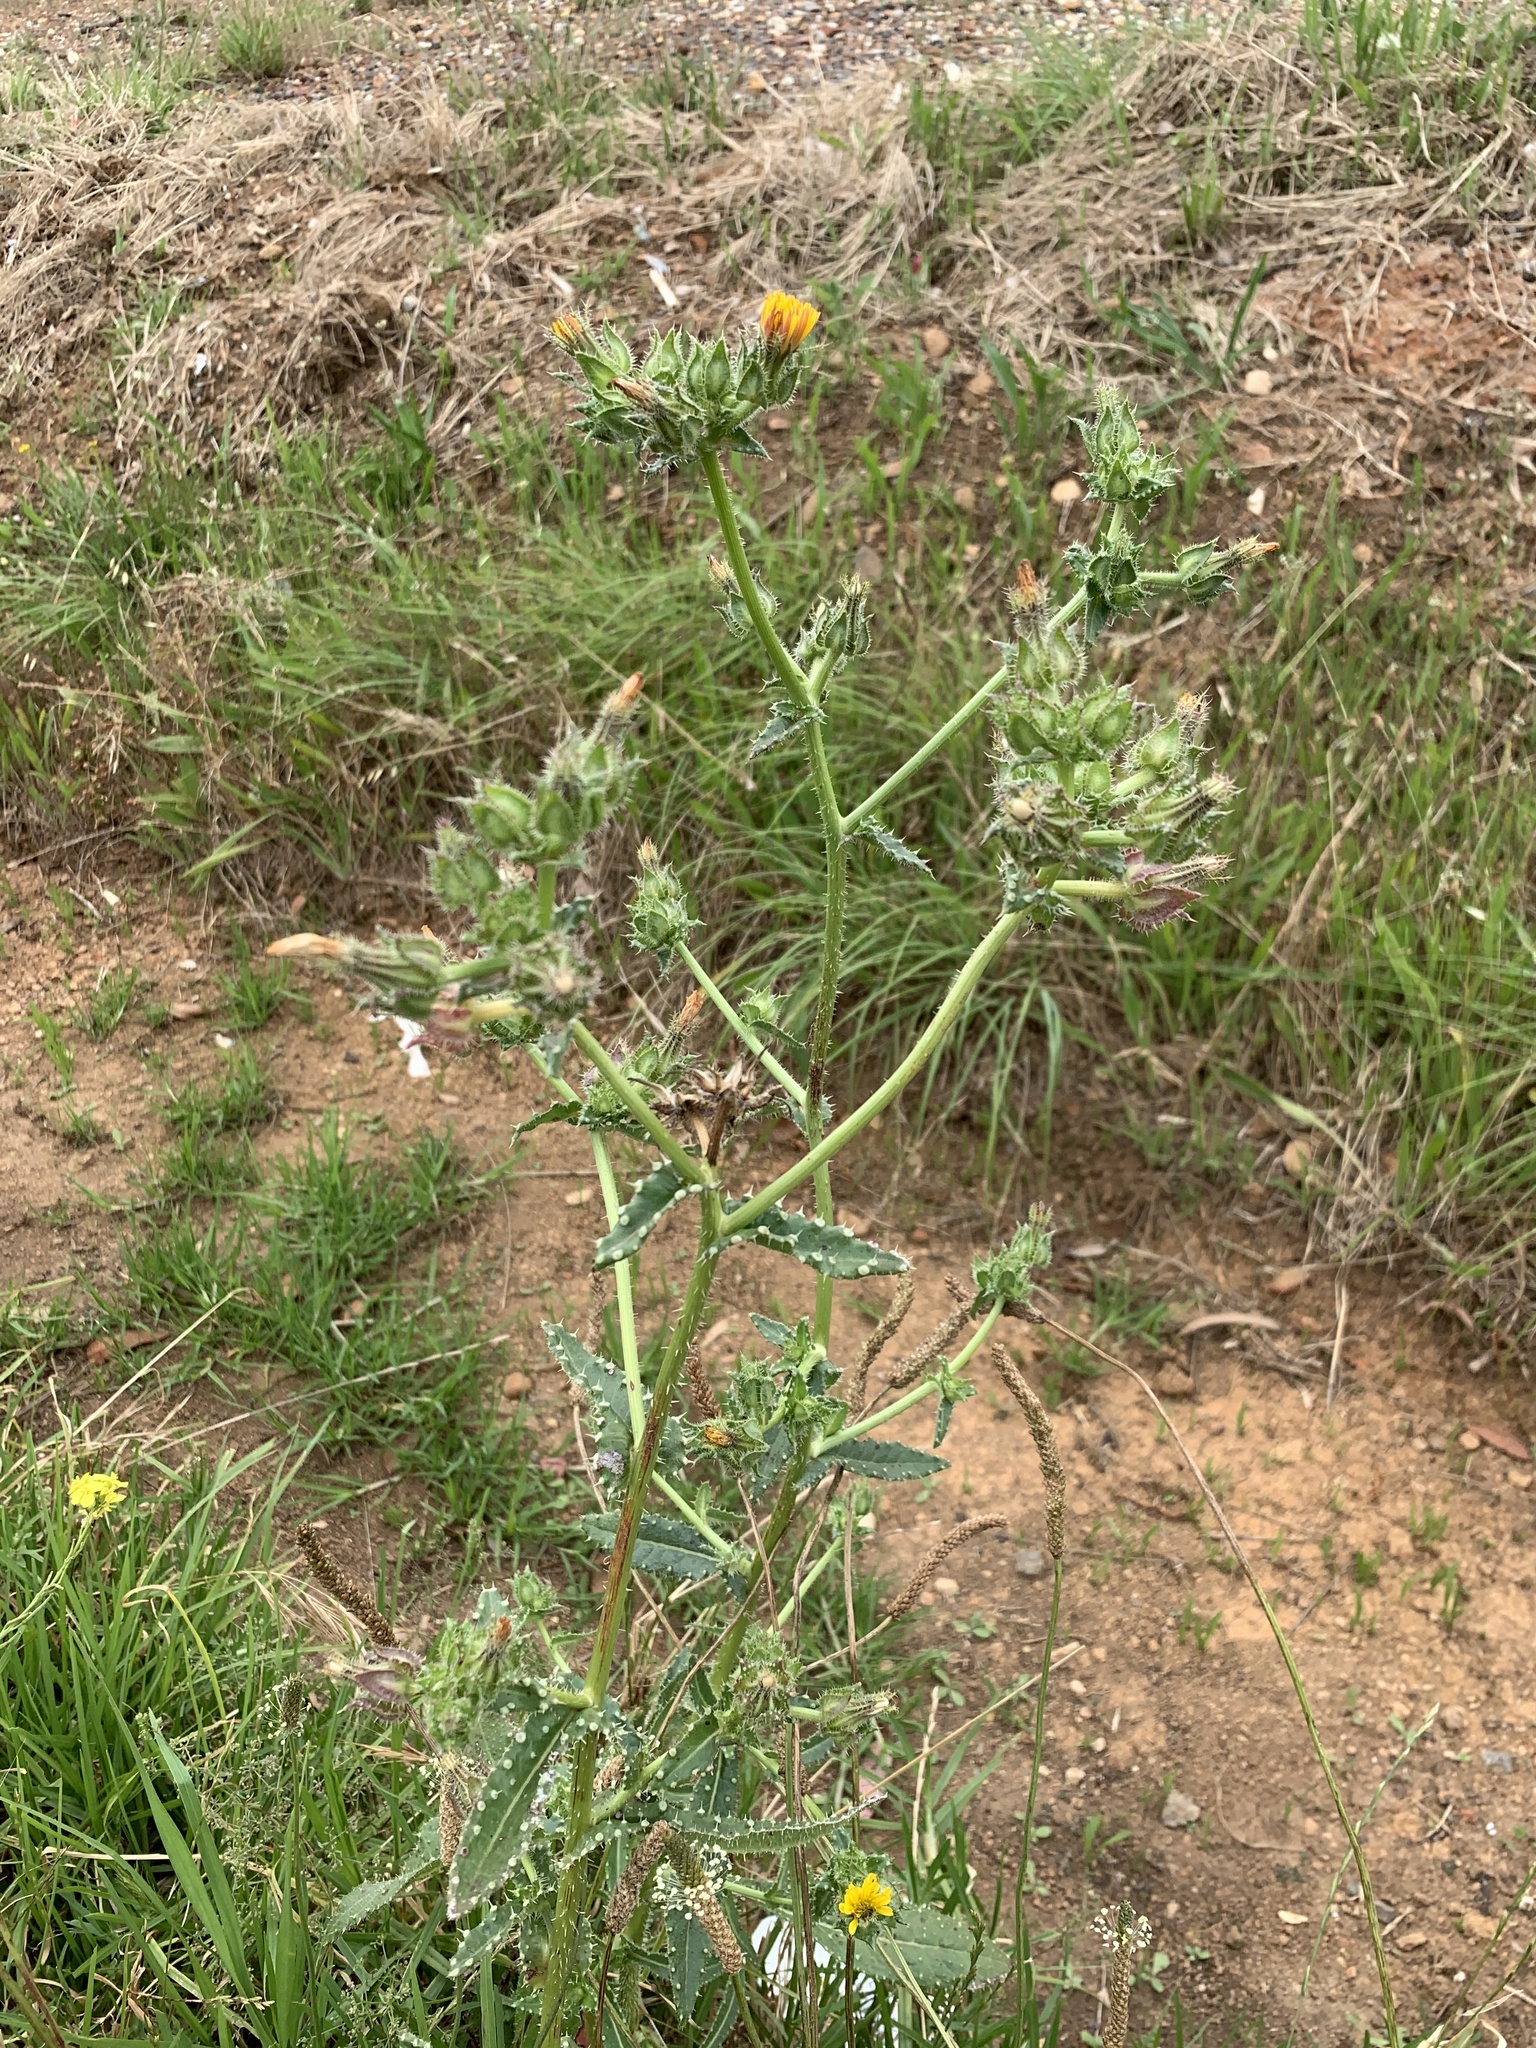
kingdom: Plantae
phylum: Tracheophyta
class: Magnoliopsida
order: Asterales
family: Asteraceae
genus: Helminthotheca
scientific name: Helminthotheca echioides
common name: Ox-tongue
